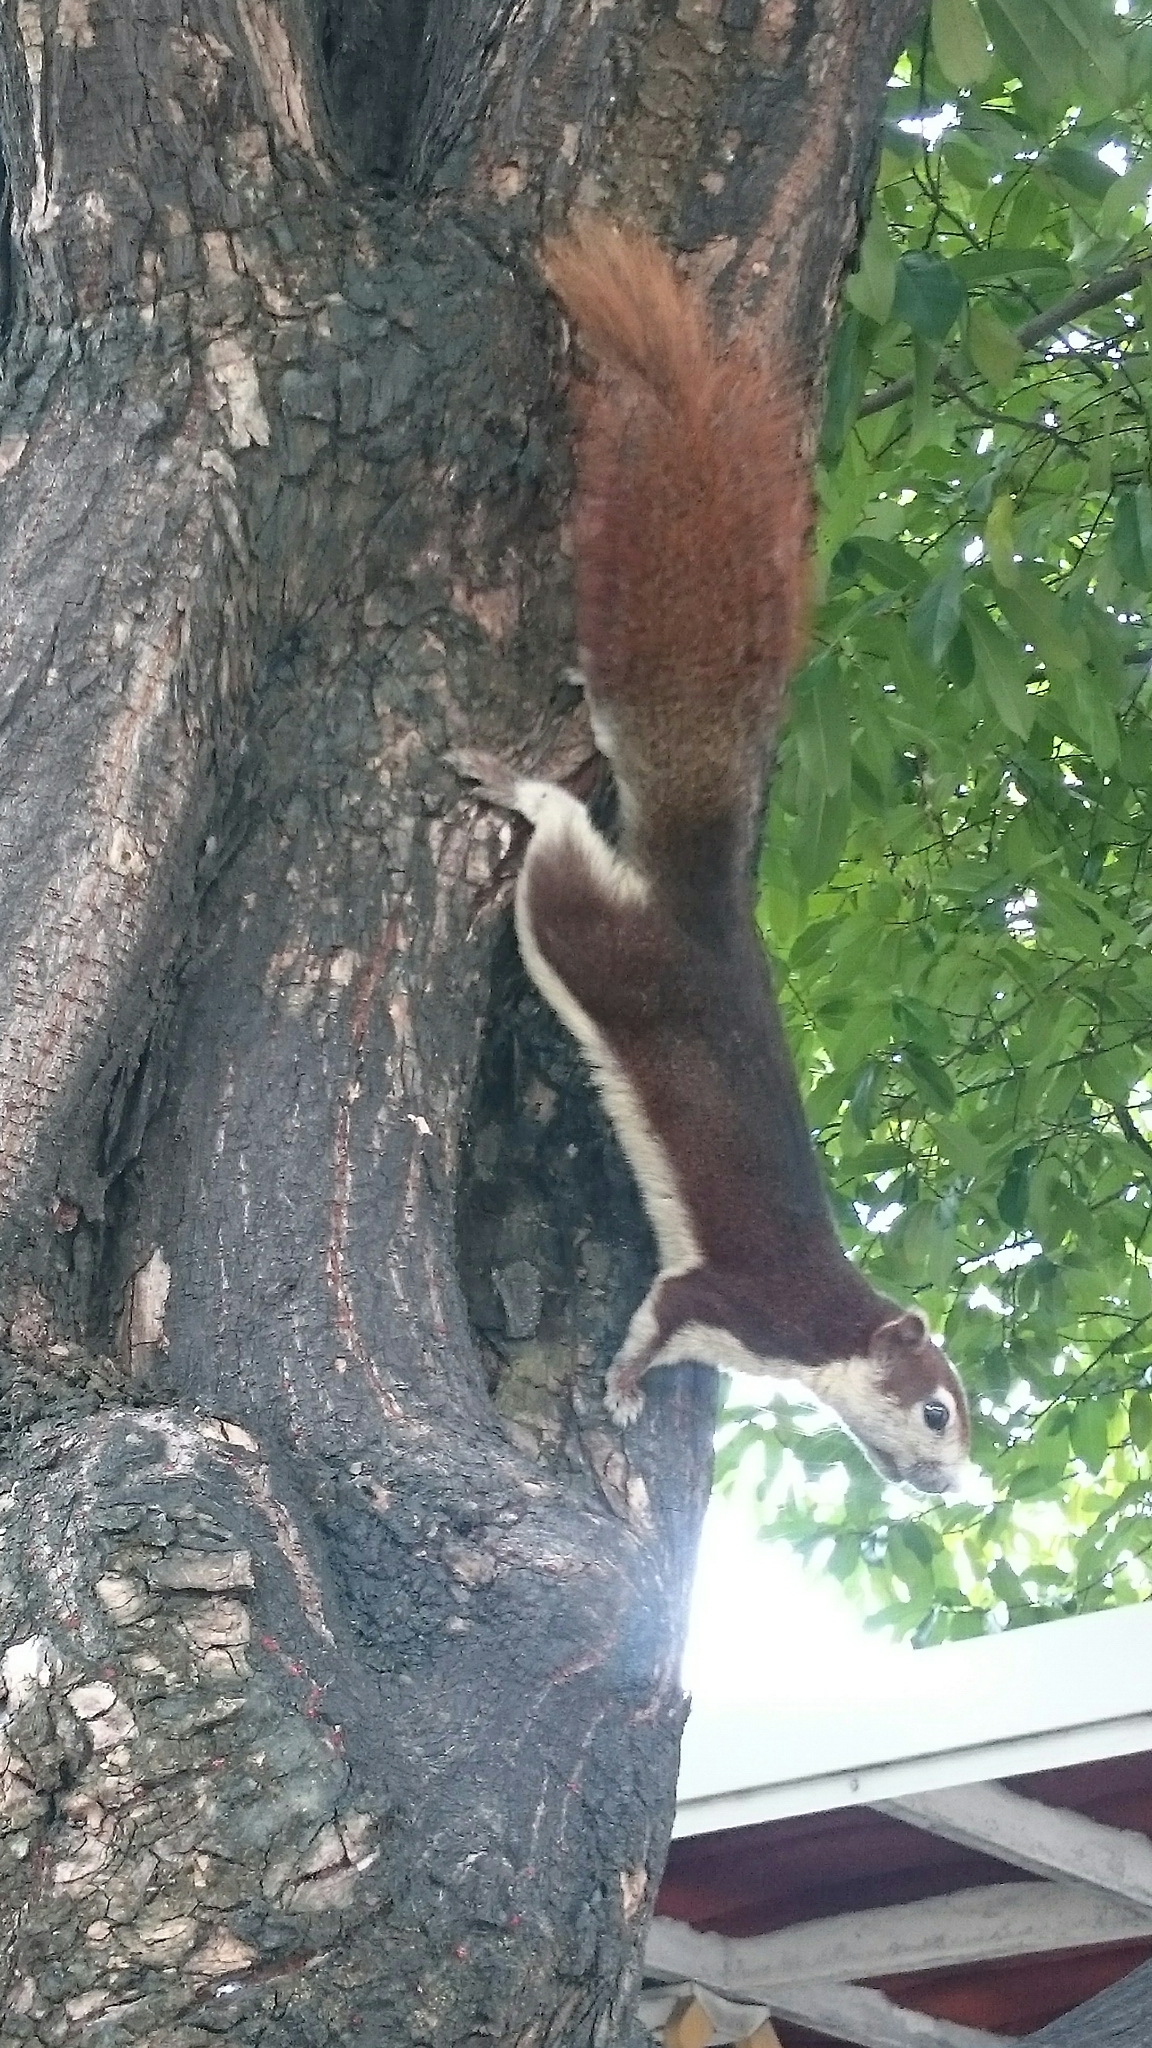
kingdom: Animalia
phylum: Chordata
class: Mammalia
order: Rodentia
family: Sciuridae
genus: Callosciurus
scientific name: Callosciurus finlaysonii
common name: Finlayson's squirrel
